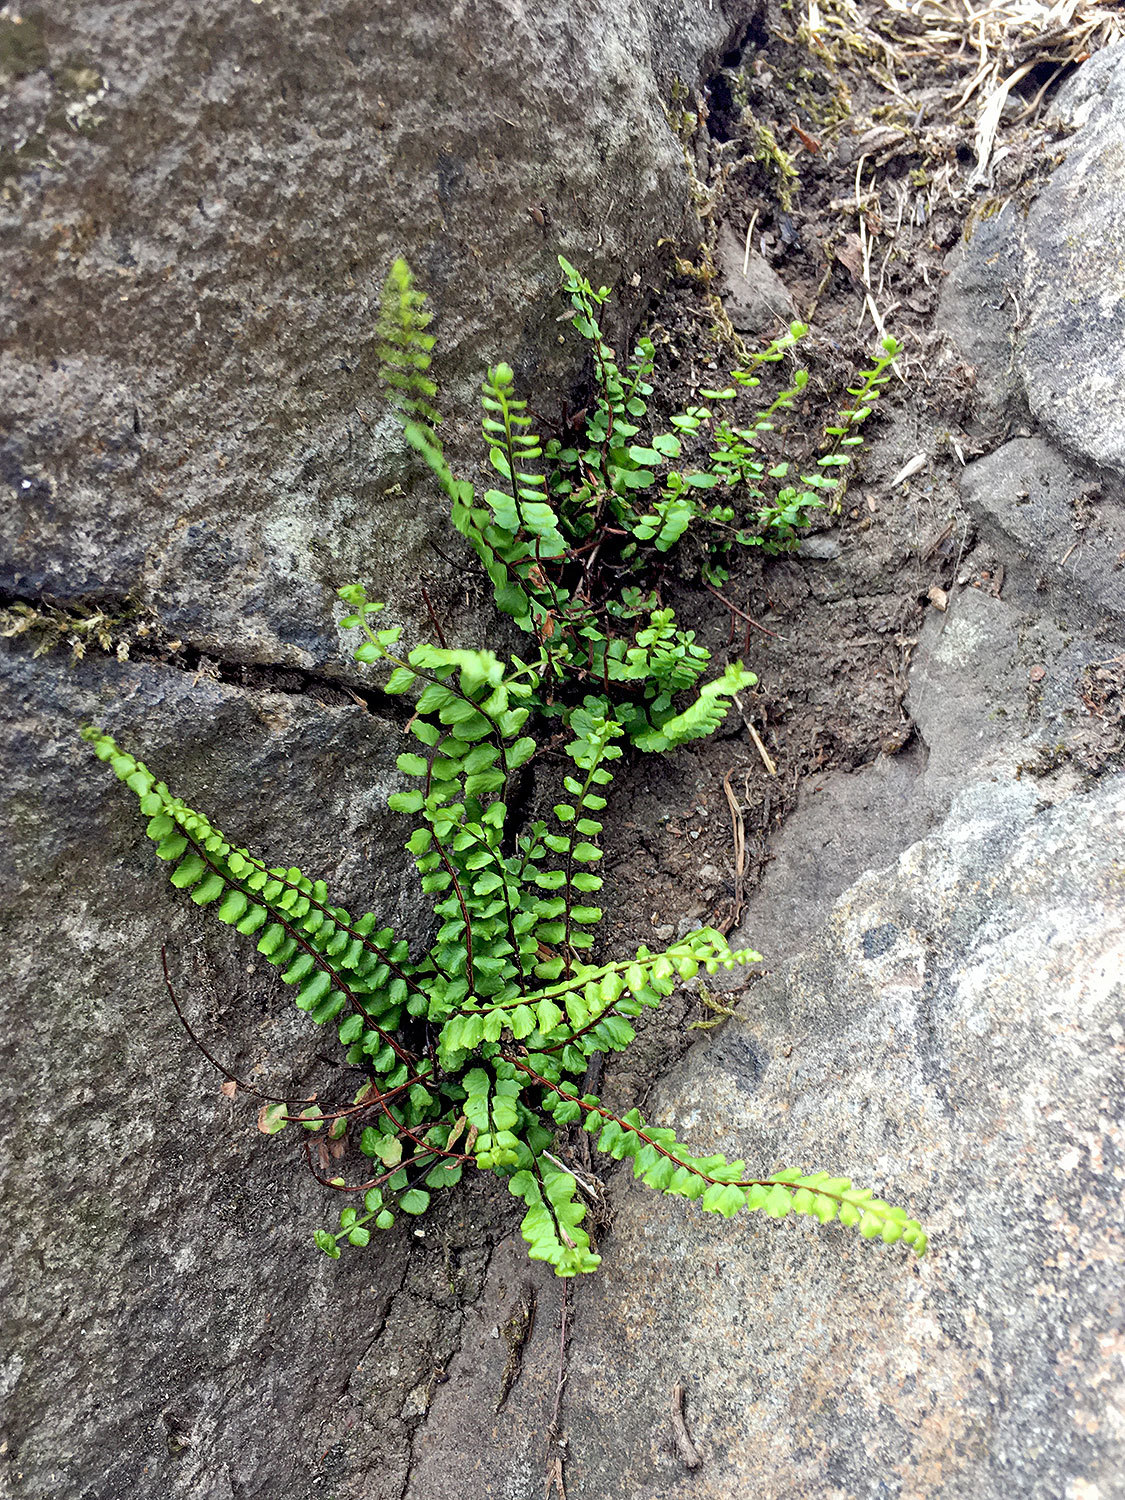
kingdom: Plantae
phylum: Tracheophyta
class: Polypodiopsida
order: Polypodiales
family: Aspleniaceae
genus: Asplenium
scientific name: Asplenium trichomanes
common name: Maidenhair spleenwort
